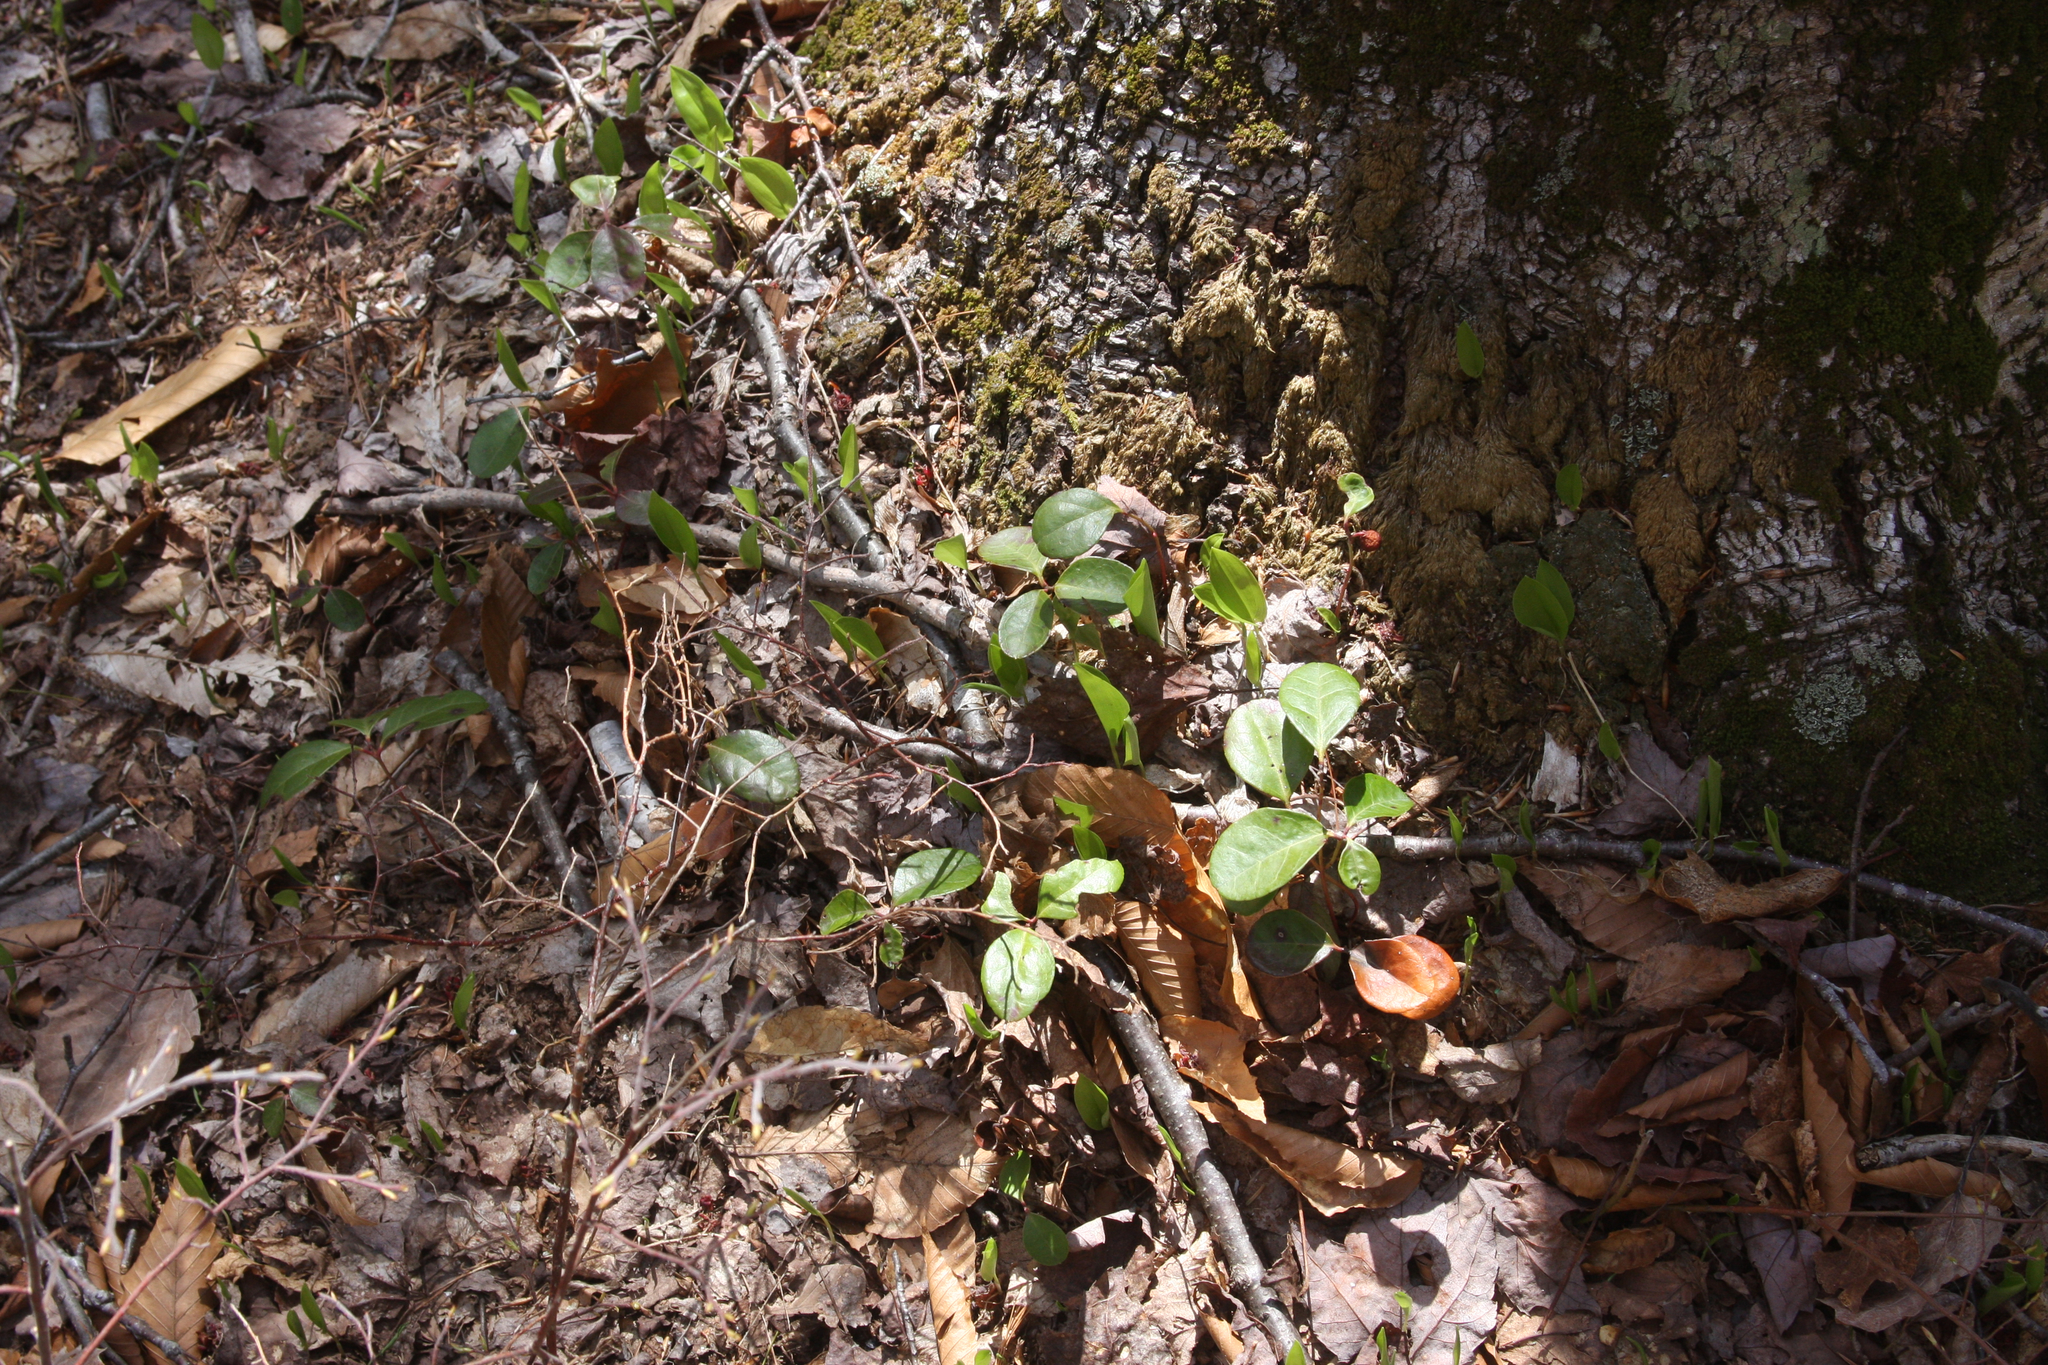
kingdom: Plantae
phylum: Tracheophyta
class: Magnoliopsida
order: Ericales
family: Ericaceae
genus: Gaultheria
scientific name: Gaultheria procumbens
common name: Checkerberry
